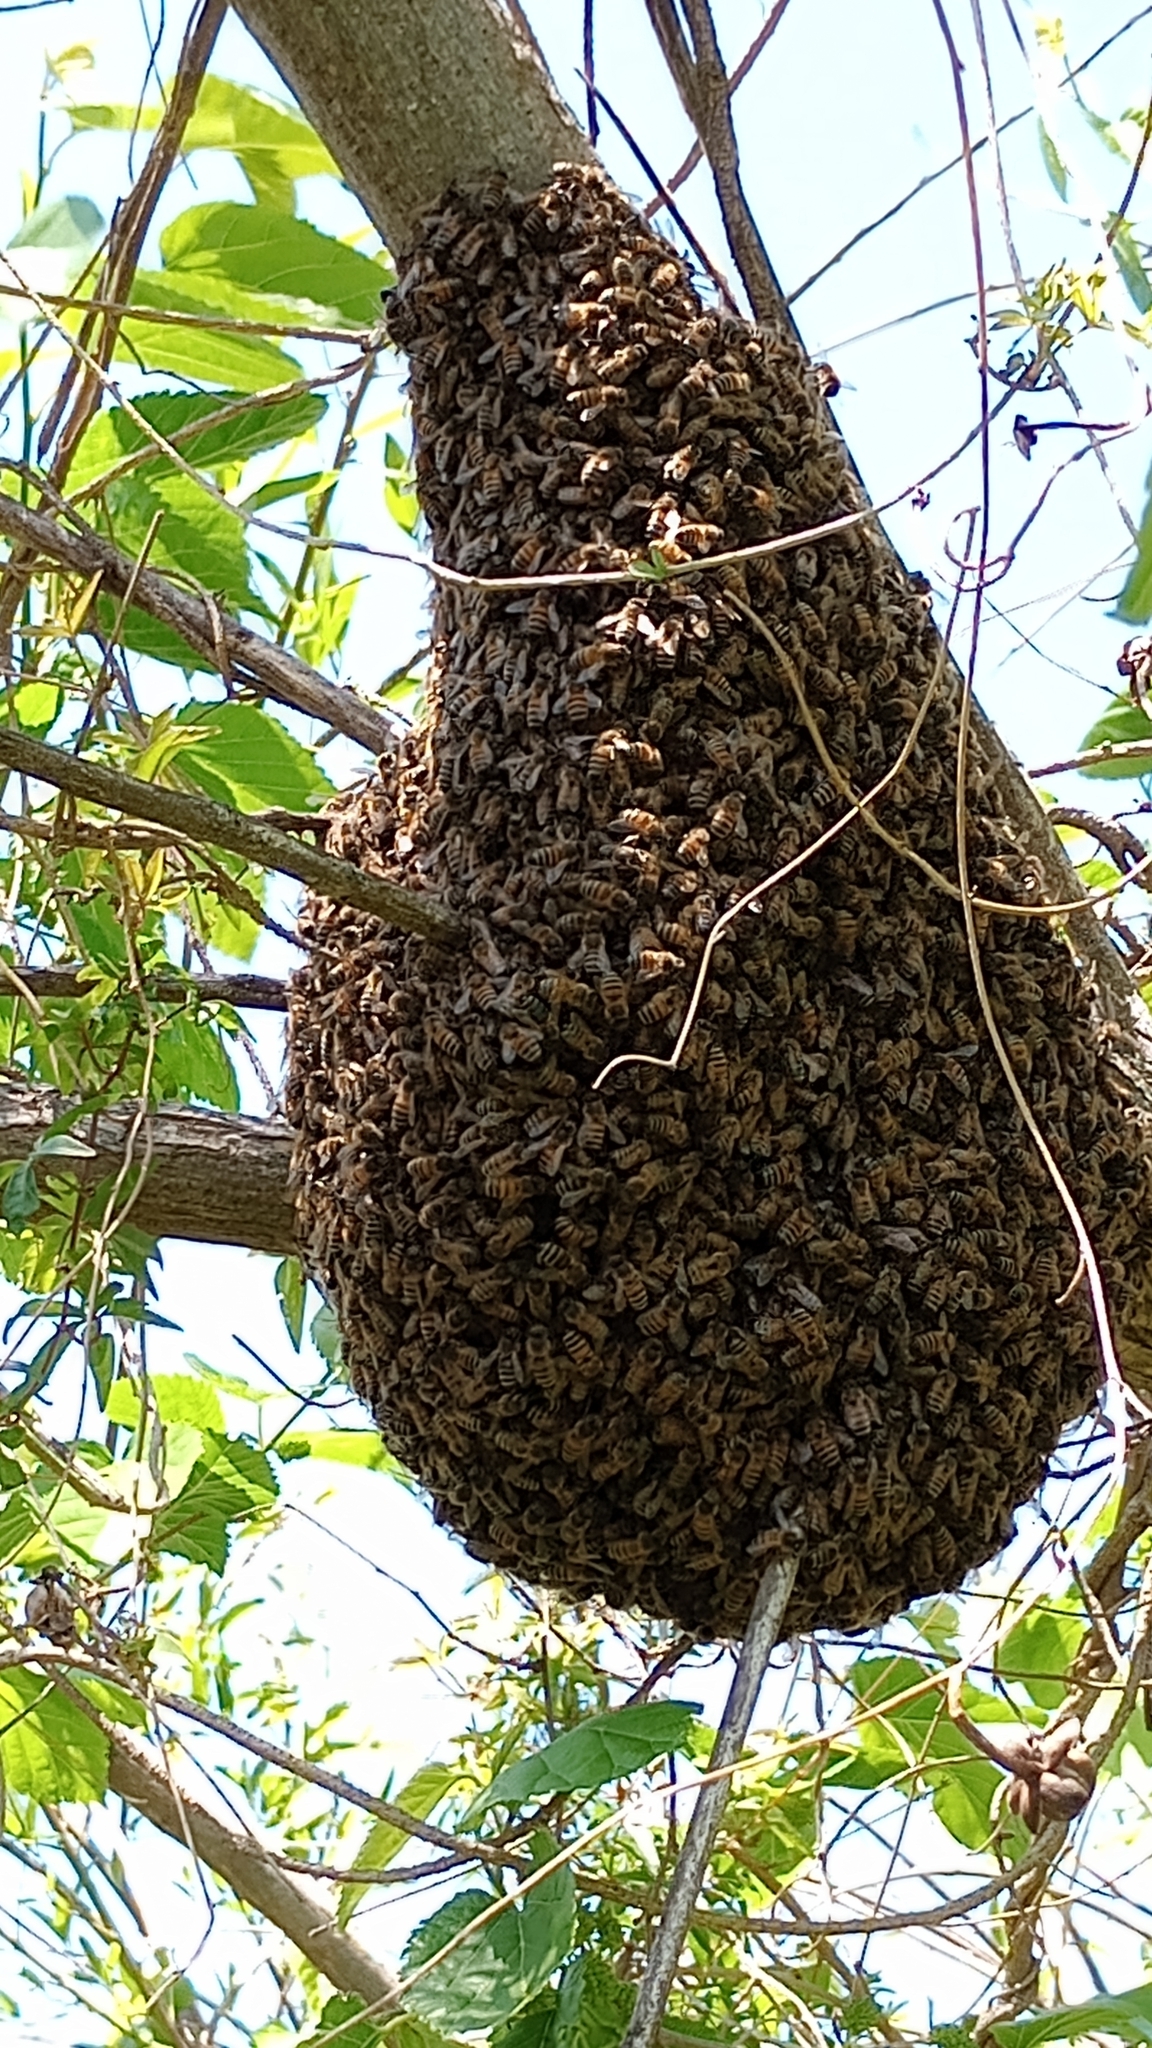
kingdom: Animalia
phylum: Arthropoda
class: Insecta
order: Hymenoptera
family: Apidae
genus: Apis
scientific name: Apis mellifera
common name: Honey bee
